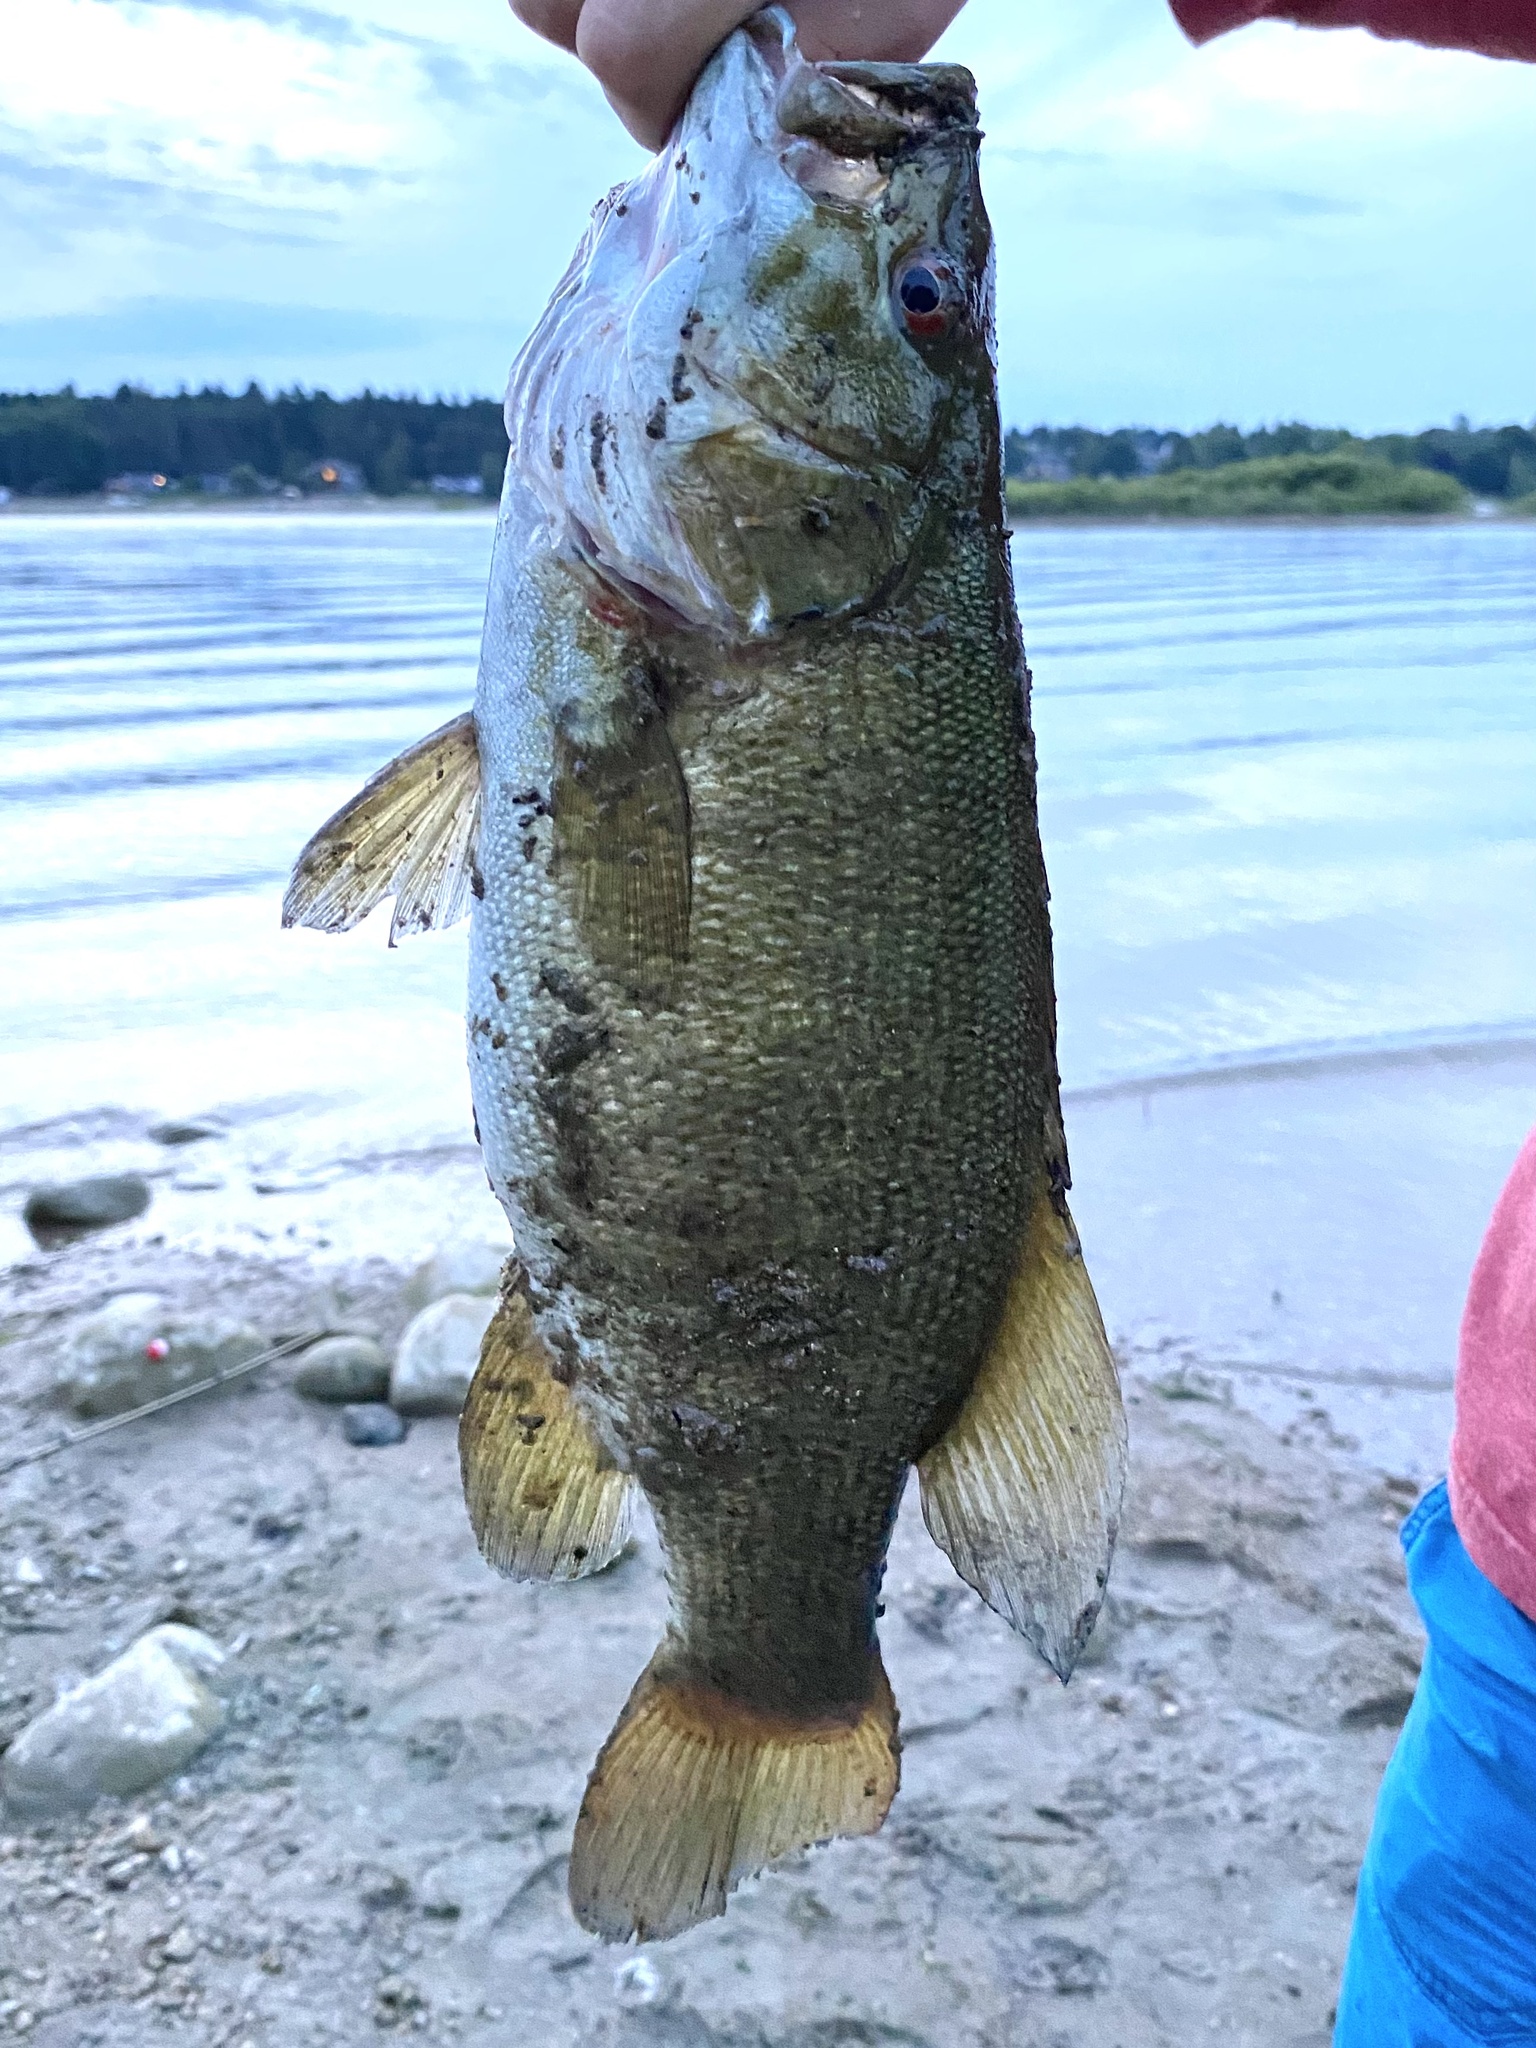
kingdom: Animalia
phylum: Chordata
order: Perciformes
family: Centrarchidae
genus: Micropterus
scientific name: Micropterus dolomieu
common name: Smallmouth bass
